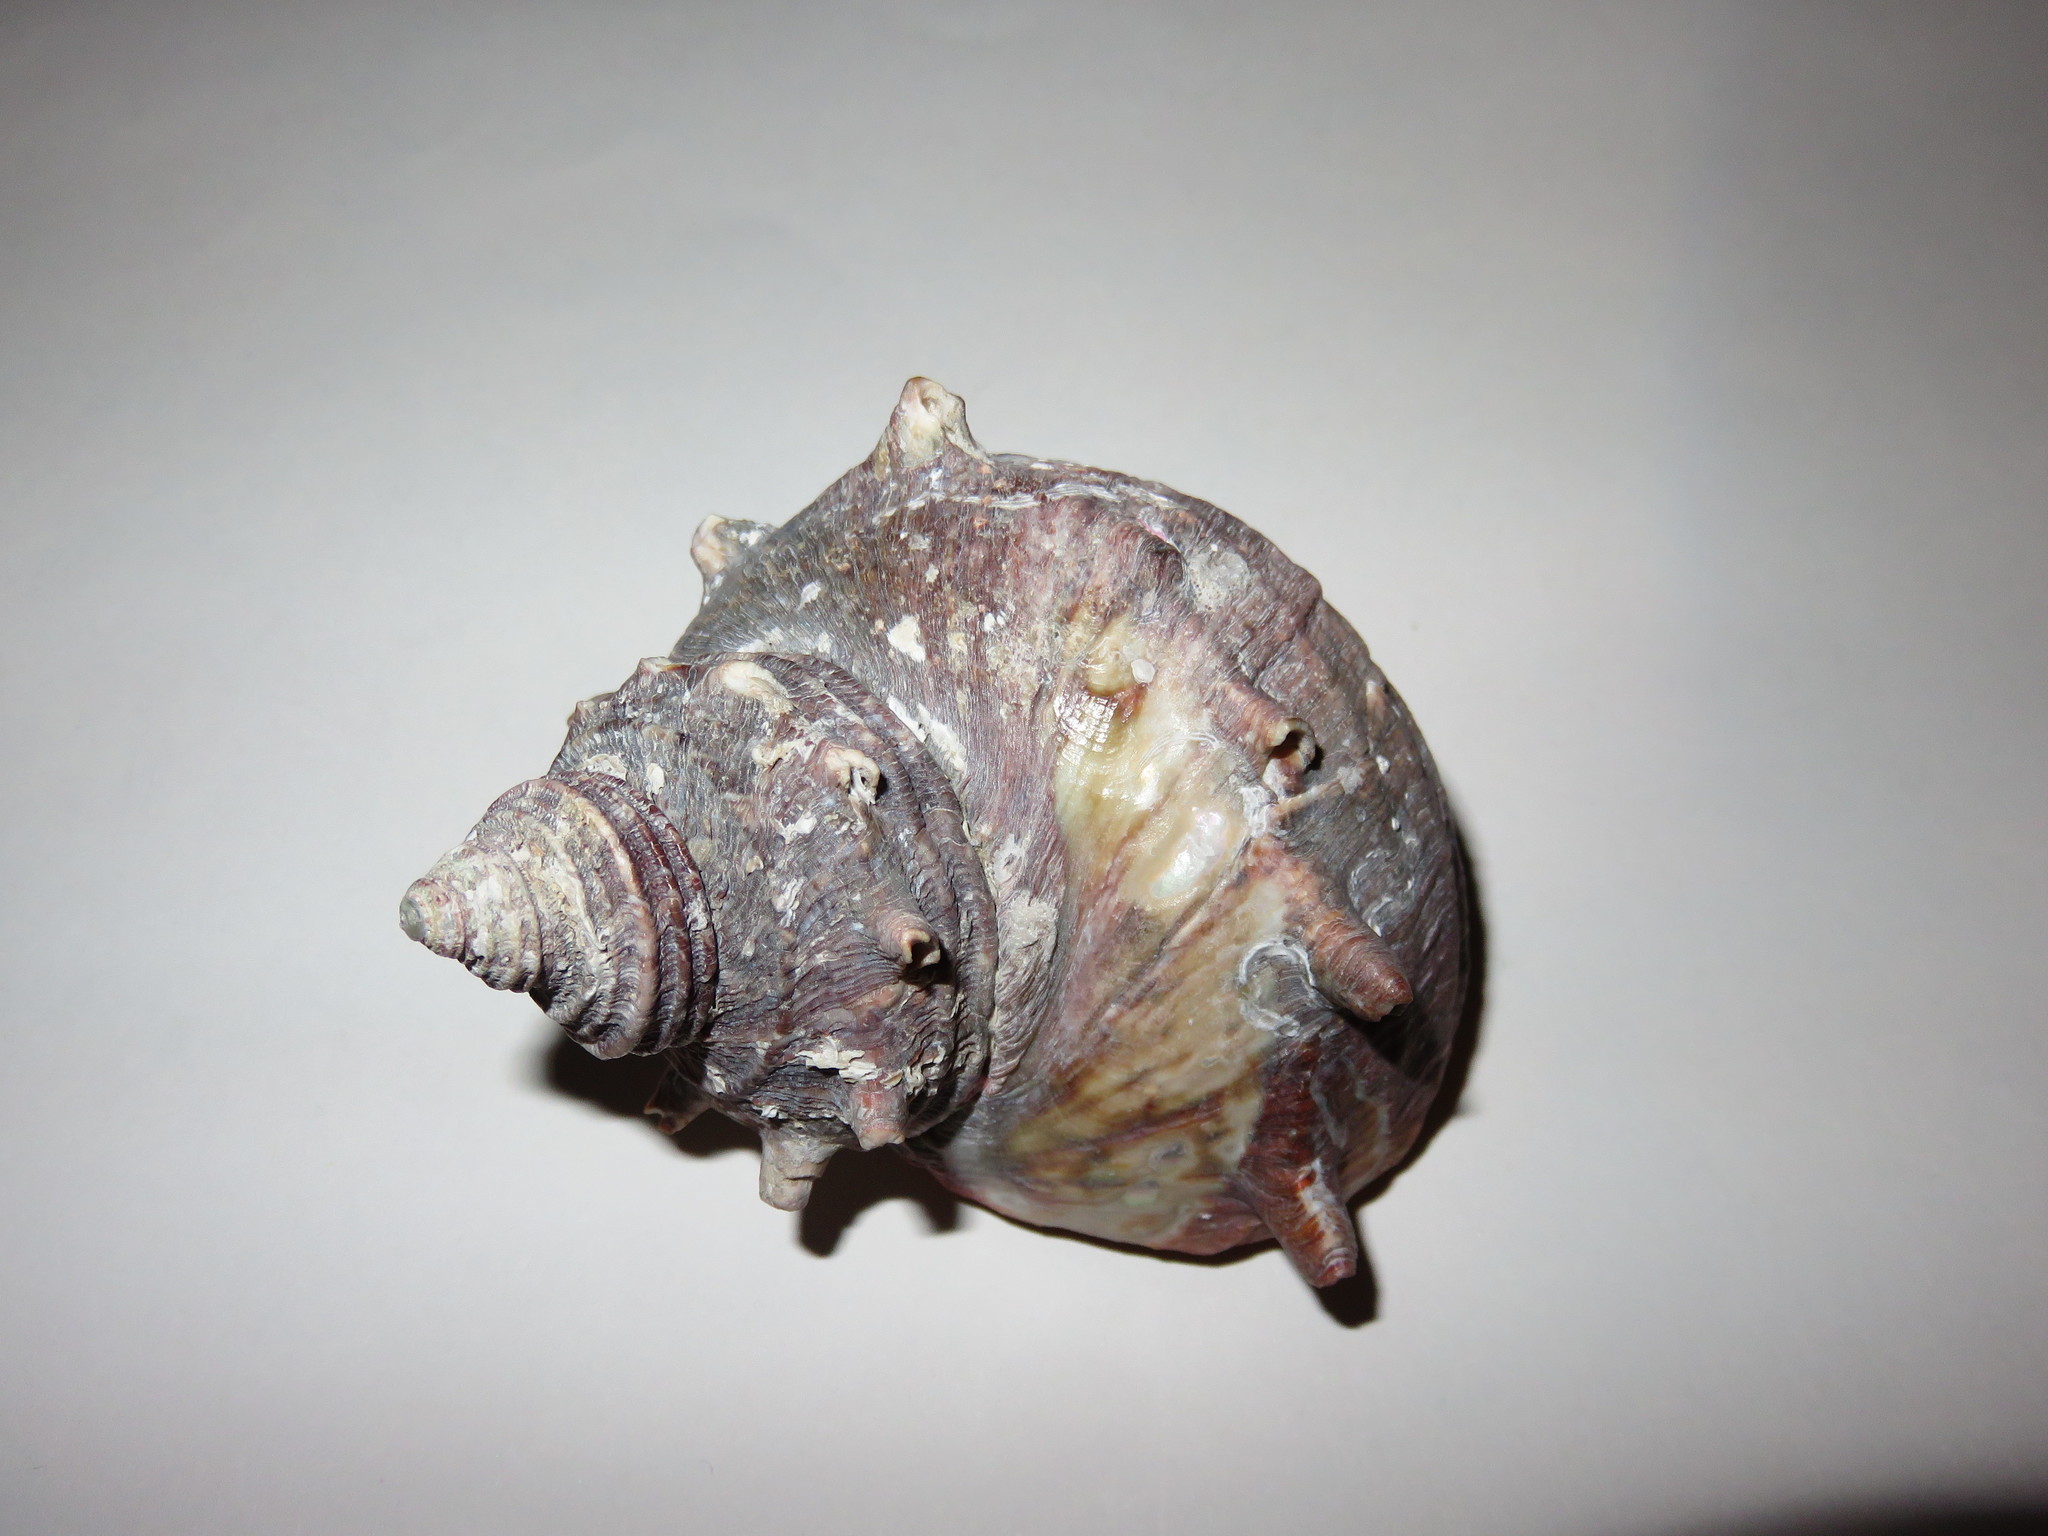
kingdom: Animalia
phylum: Mollusca
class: Gastropoda
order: Trochida
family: Turbinidae
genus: Turbo
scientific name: Turbo sazae
